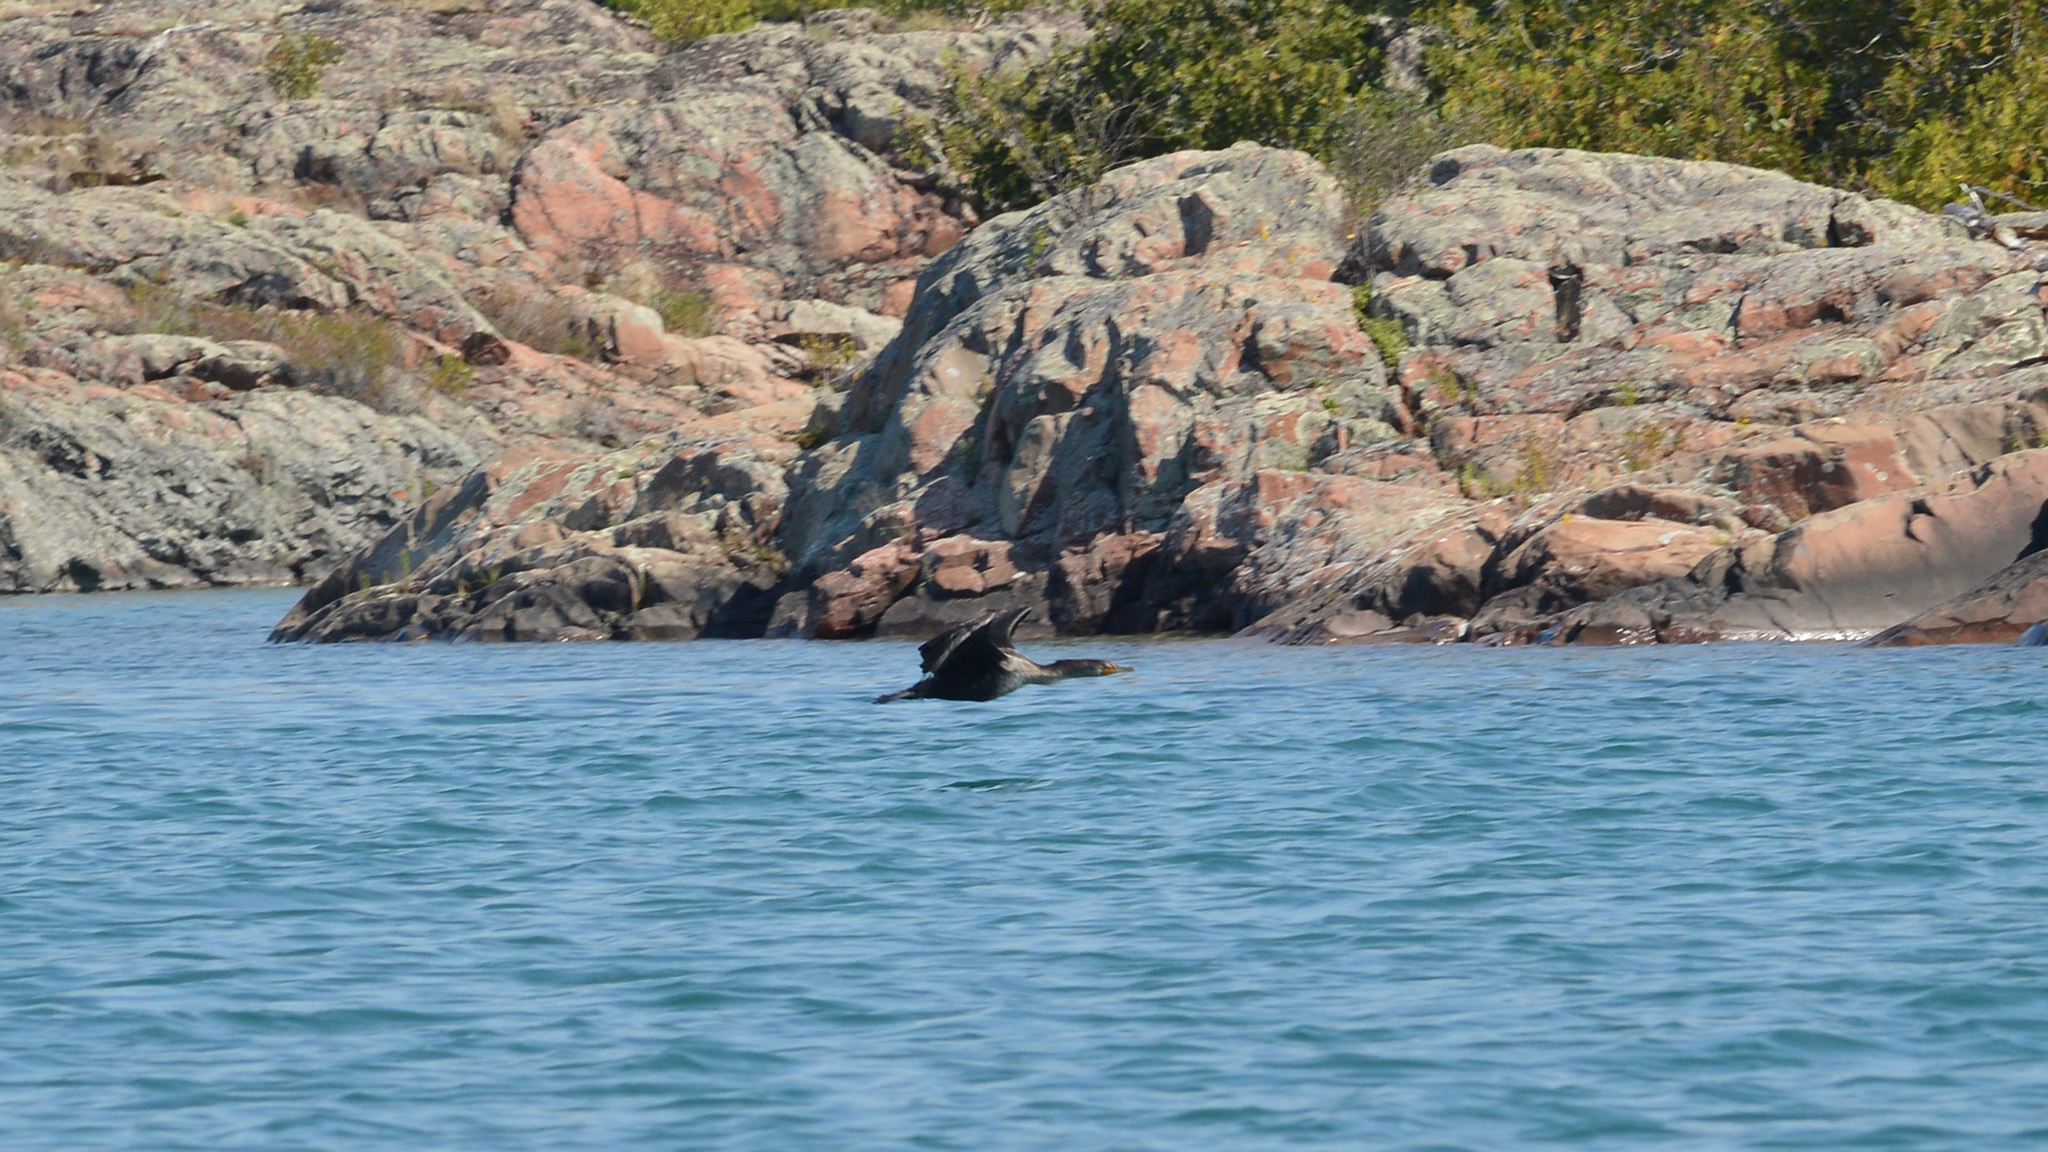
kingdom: Animalia
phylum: Chordata
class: Aves
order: Suliformes
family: Phalacrocoracidae
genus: Phalacrocorax
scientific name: Phalacrocorax auritus
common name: Double-crested cormorant
